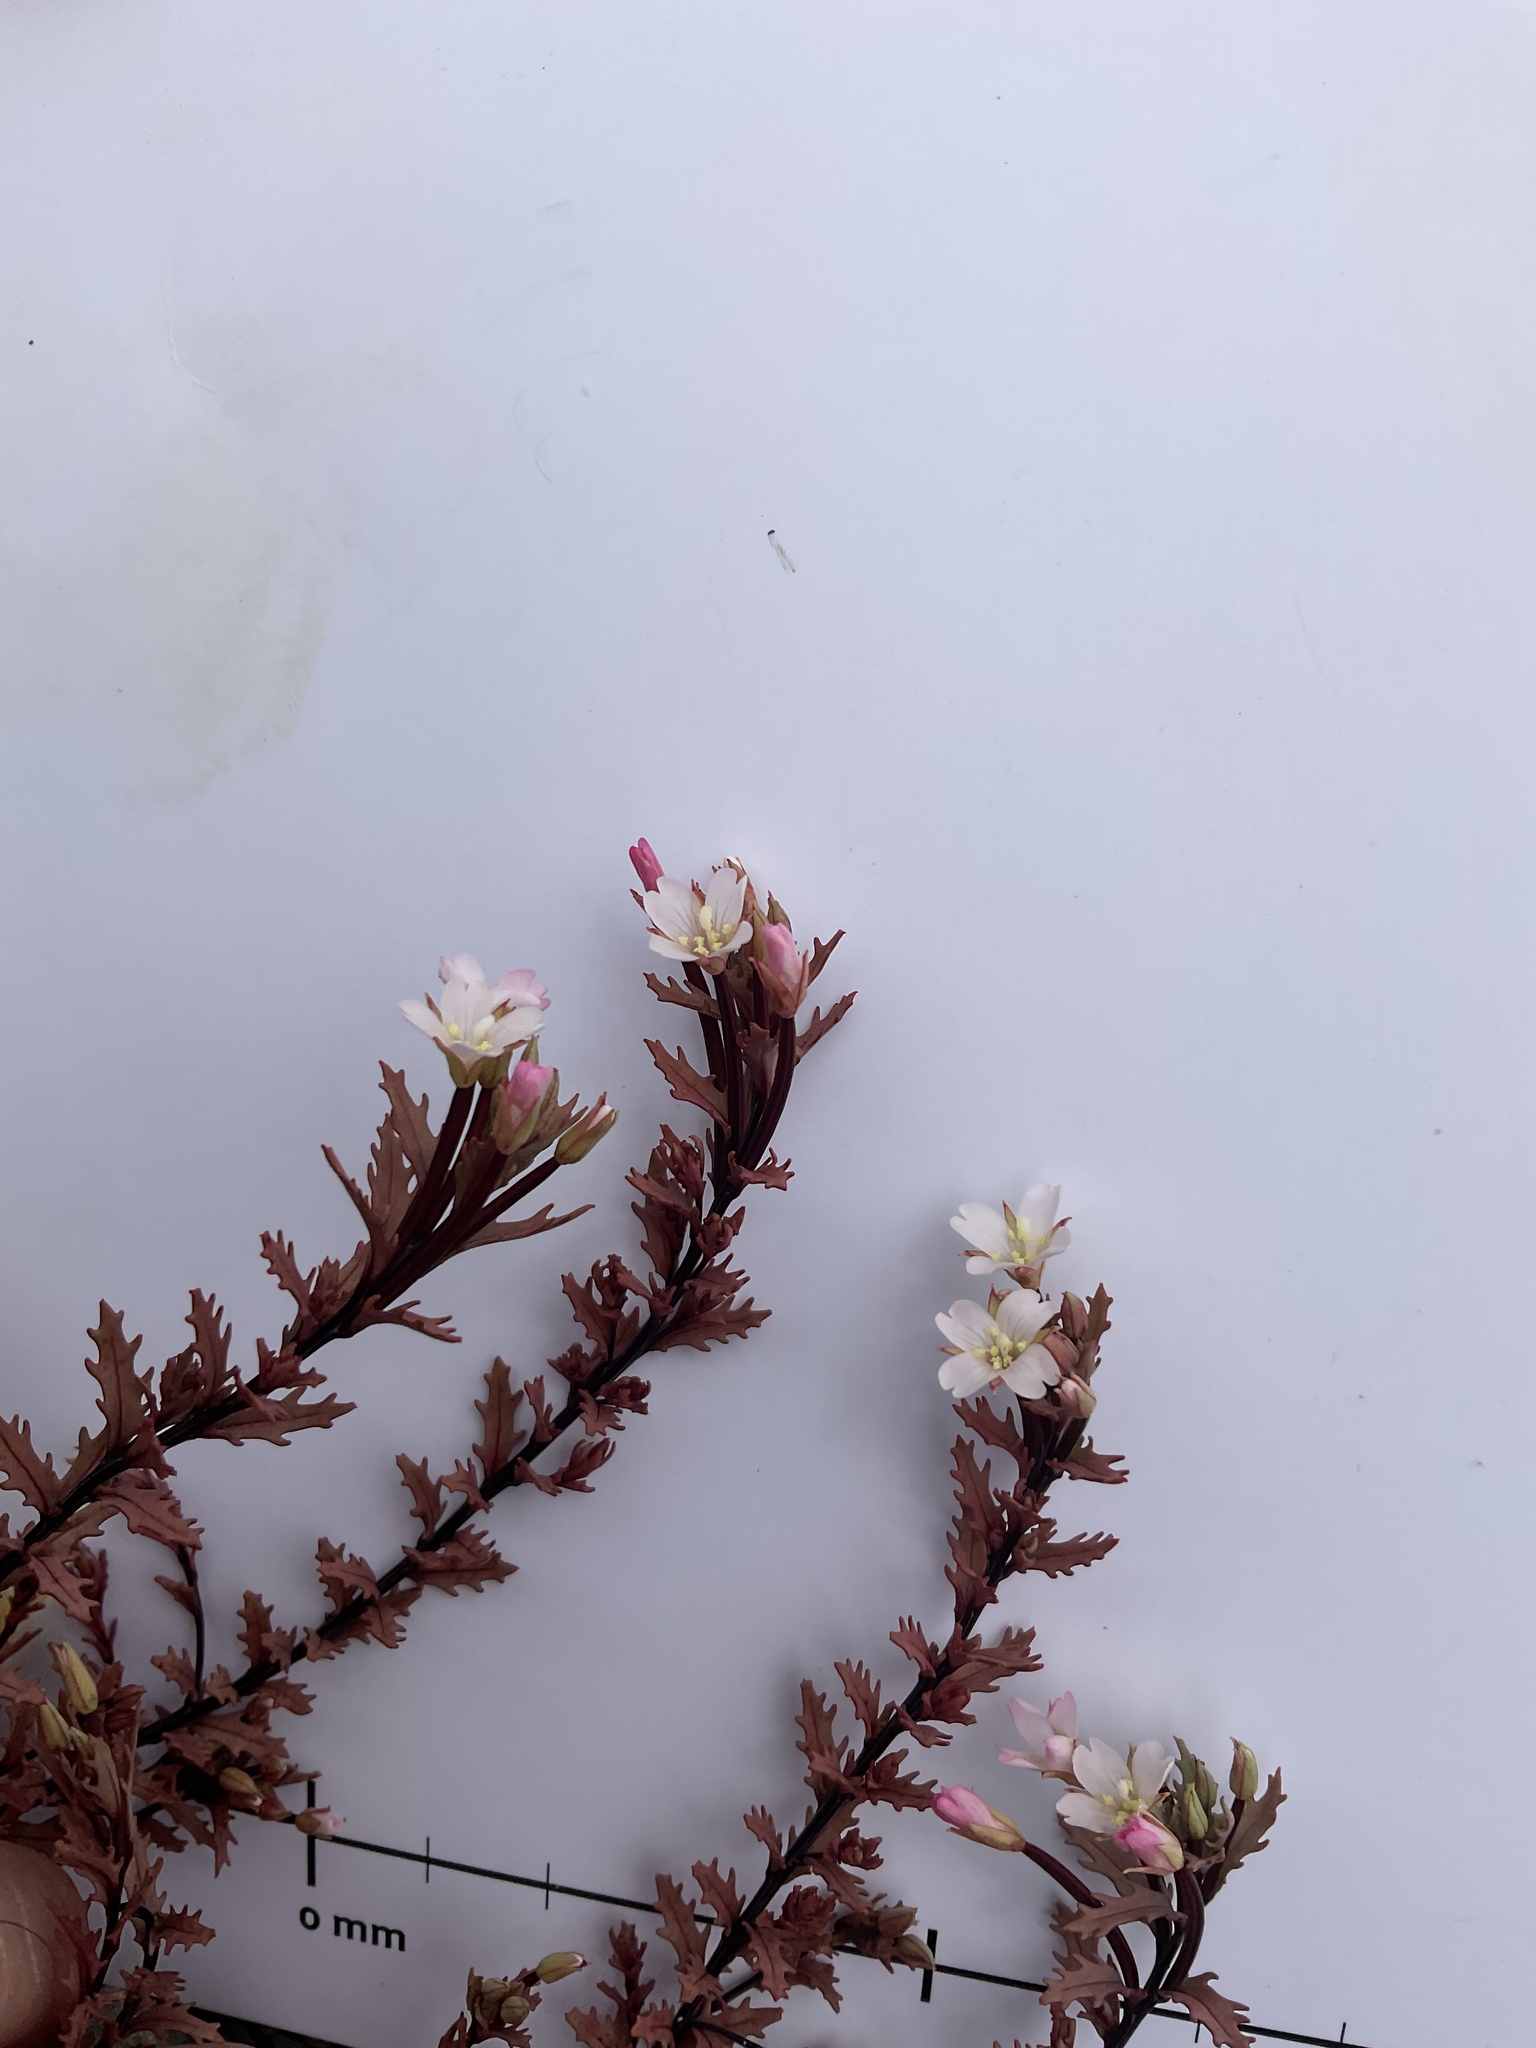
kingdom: Plantae
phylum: Tracheophyta
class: Magnoliopsida
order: Myrtales
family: Onagraceae
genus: Epilobium
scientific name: Epilobium melanocaulon
